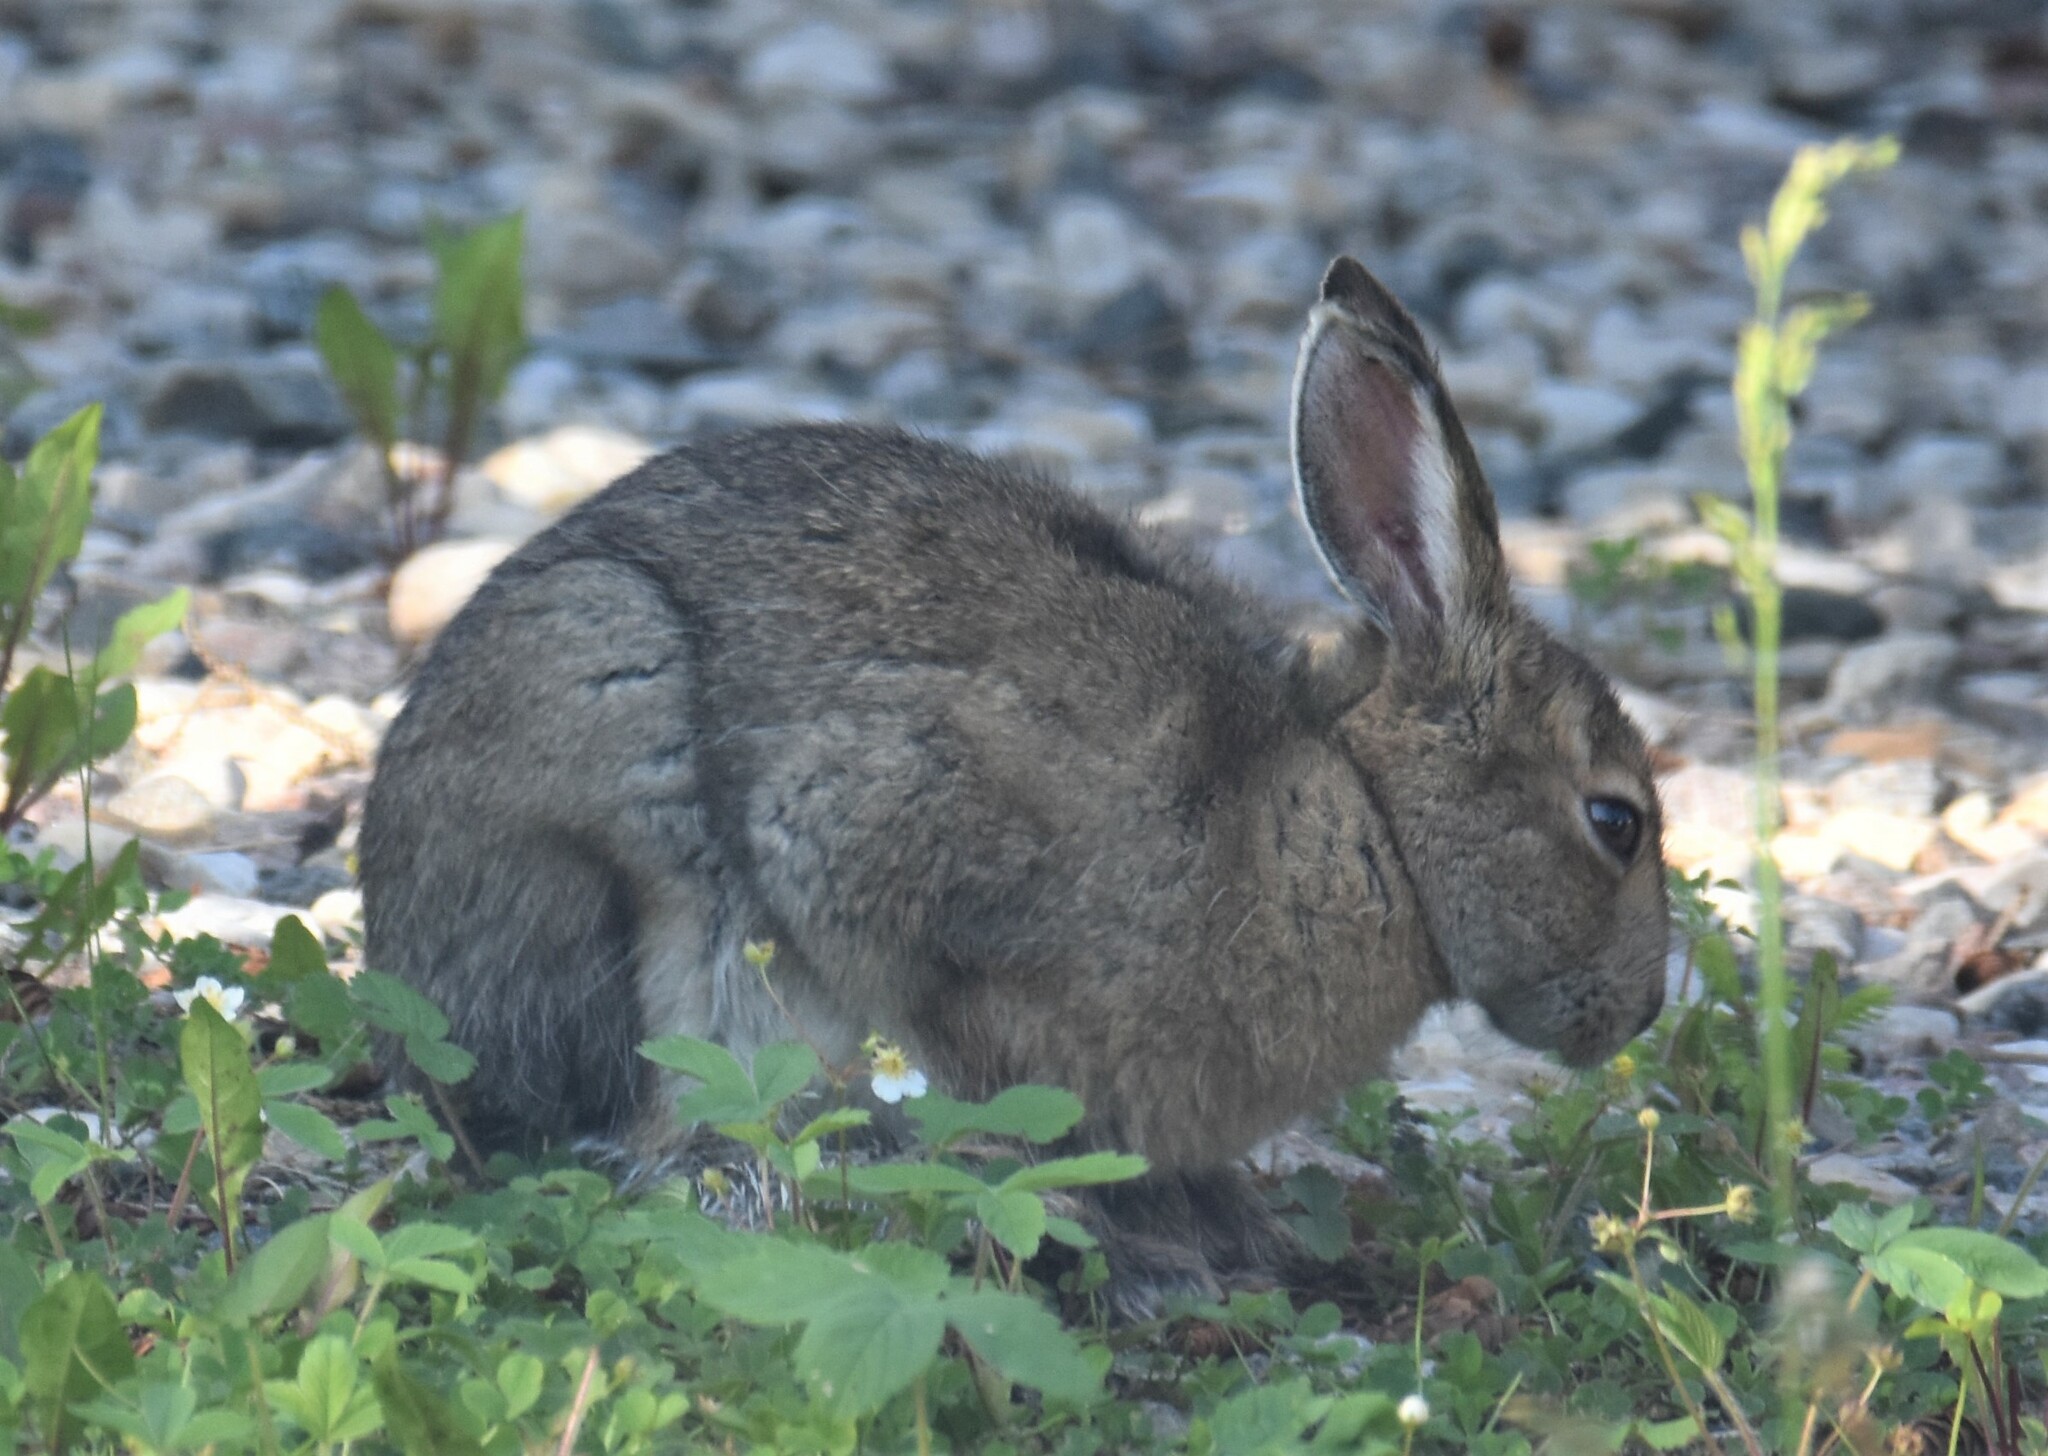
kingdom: Animalia
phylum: Chordata
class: Mammalia
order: Lagomorpha
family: Leporidae
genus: Lepus
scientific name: Lepus americanus
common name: Snowshoe hare
